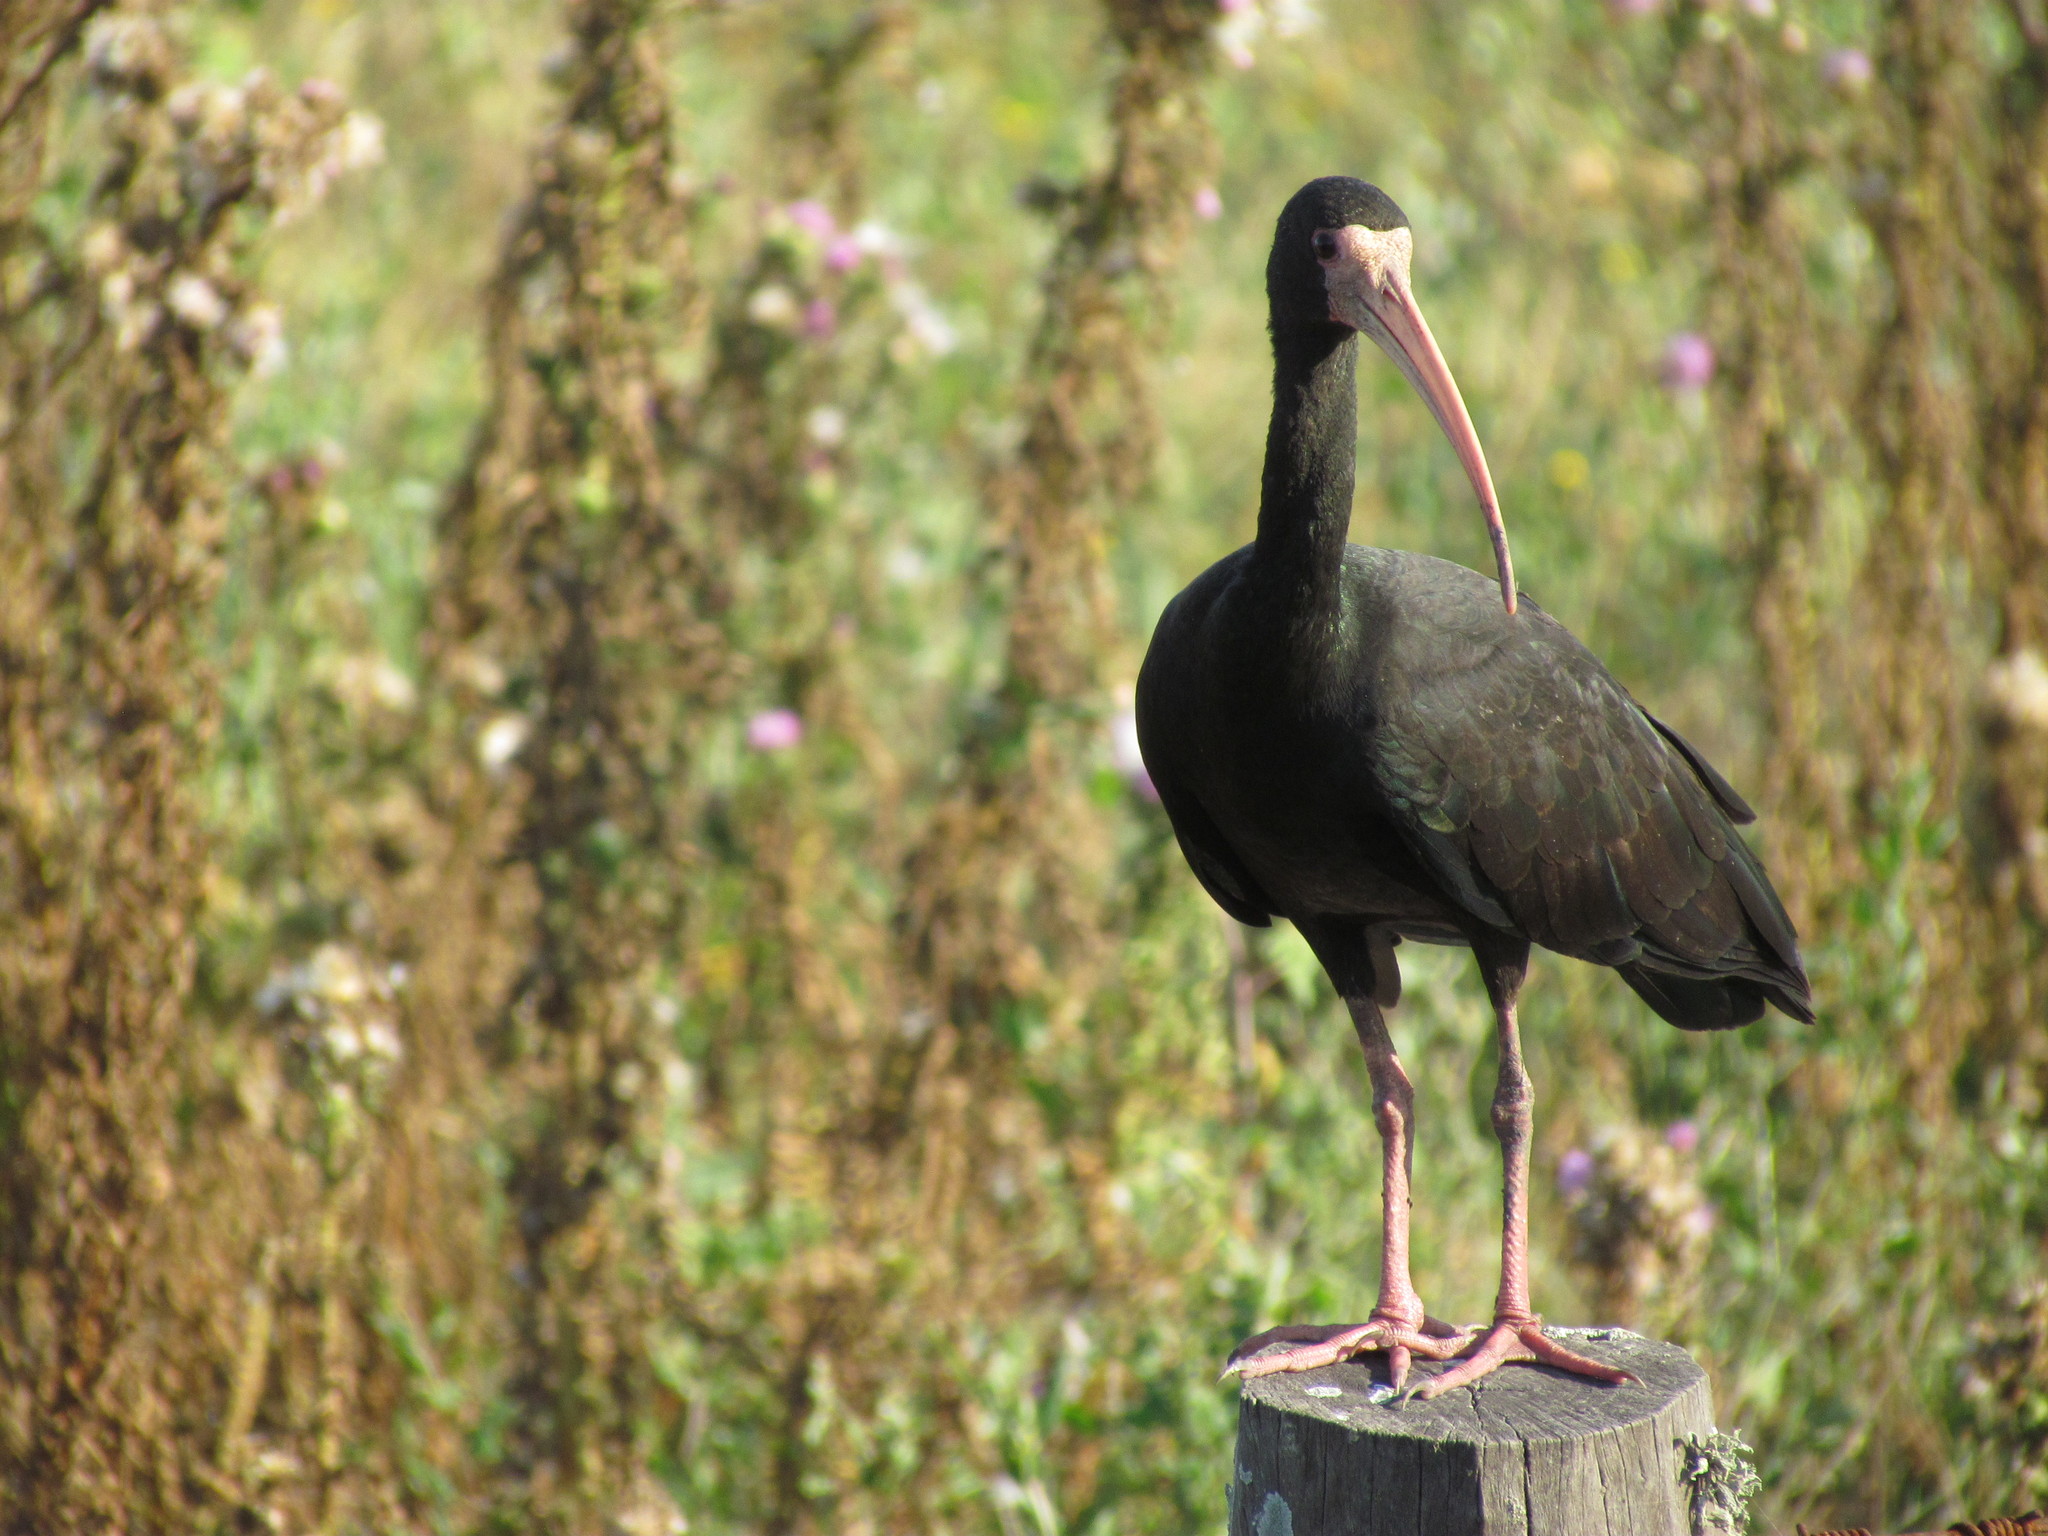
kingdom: Animalia
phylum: Chordata
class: Aves
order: Pelecaniformes
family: Threskiornithidae
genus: Phimosus
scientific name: Phimosus infuscatus
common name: Bare-faced ibis
